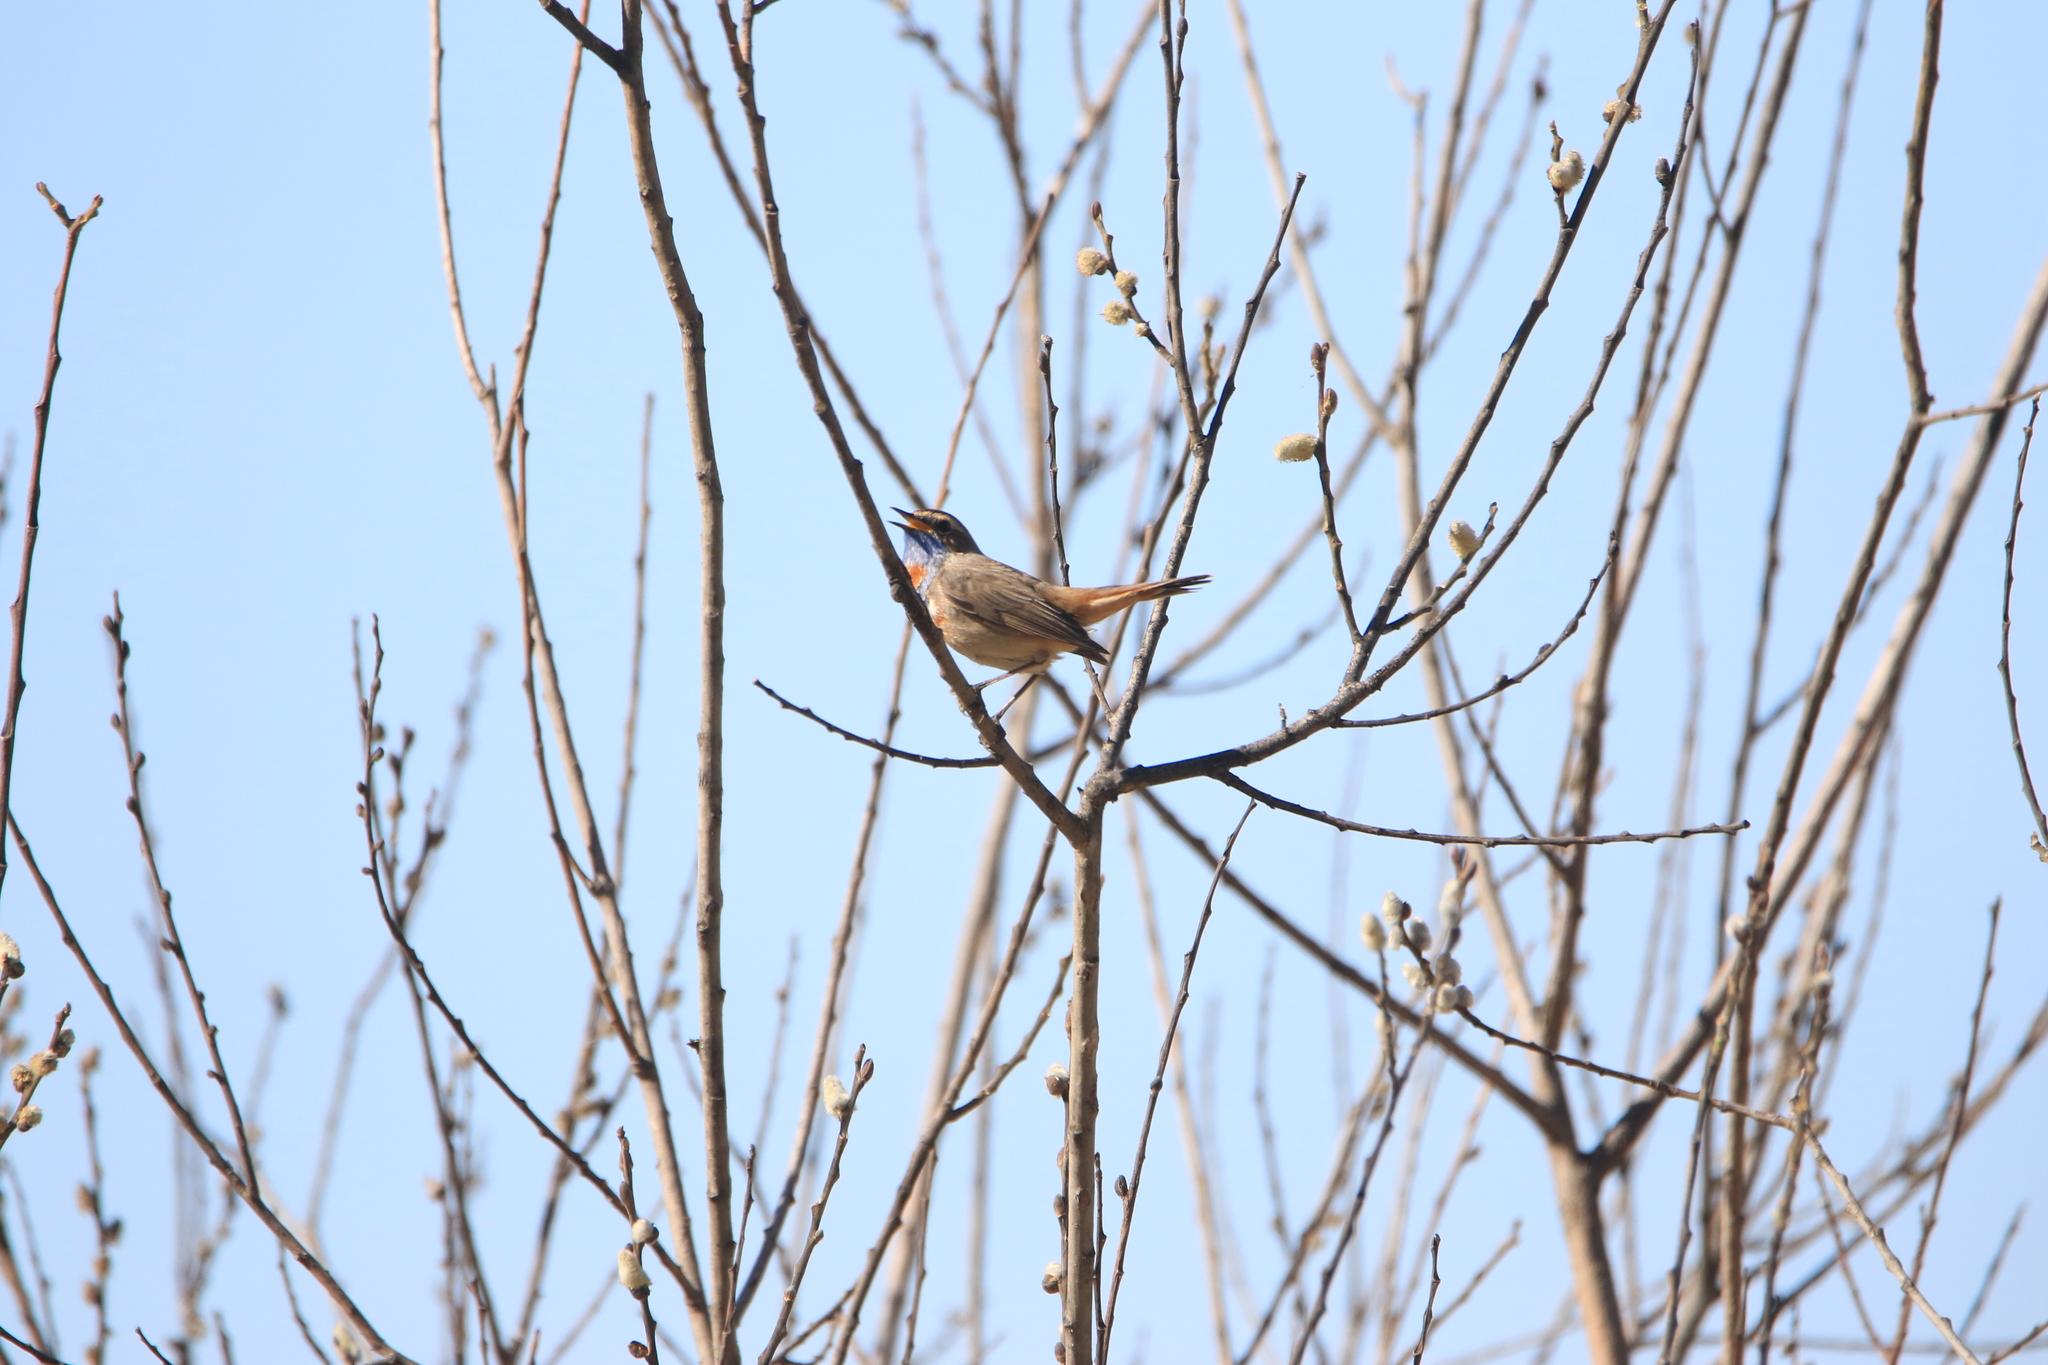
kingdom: Animalia
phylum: Chordata
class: Aves
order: Passeriformes
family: Muscicapidae
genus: Luscinia
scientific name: Luscinia svecica
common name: Bluethroat
